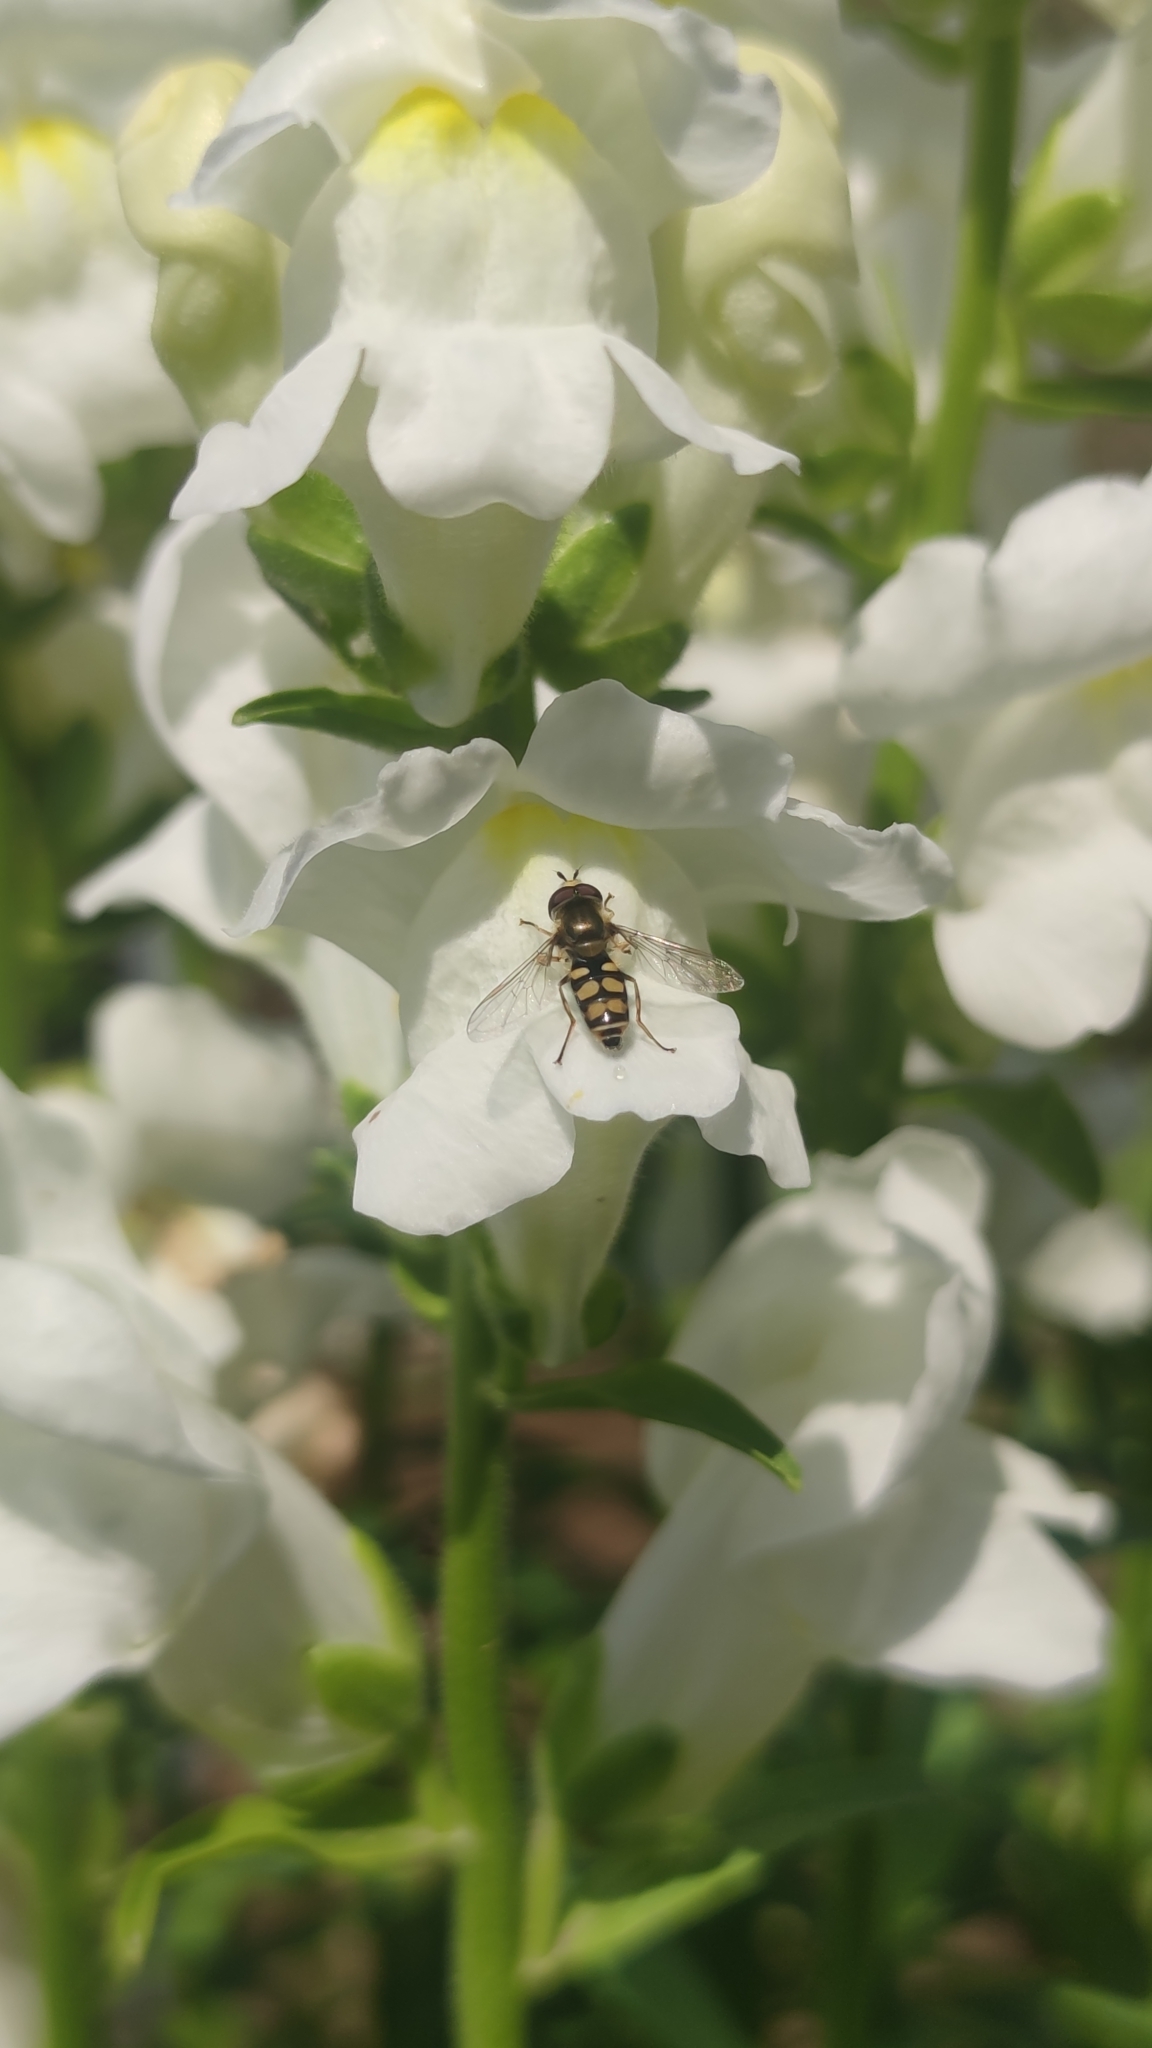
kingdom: Animalia
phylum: Arthropoda
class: Insecta
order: Diptera
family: Syrphidae
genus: Eupeodes
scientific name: Eupeodes corollae
